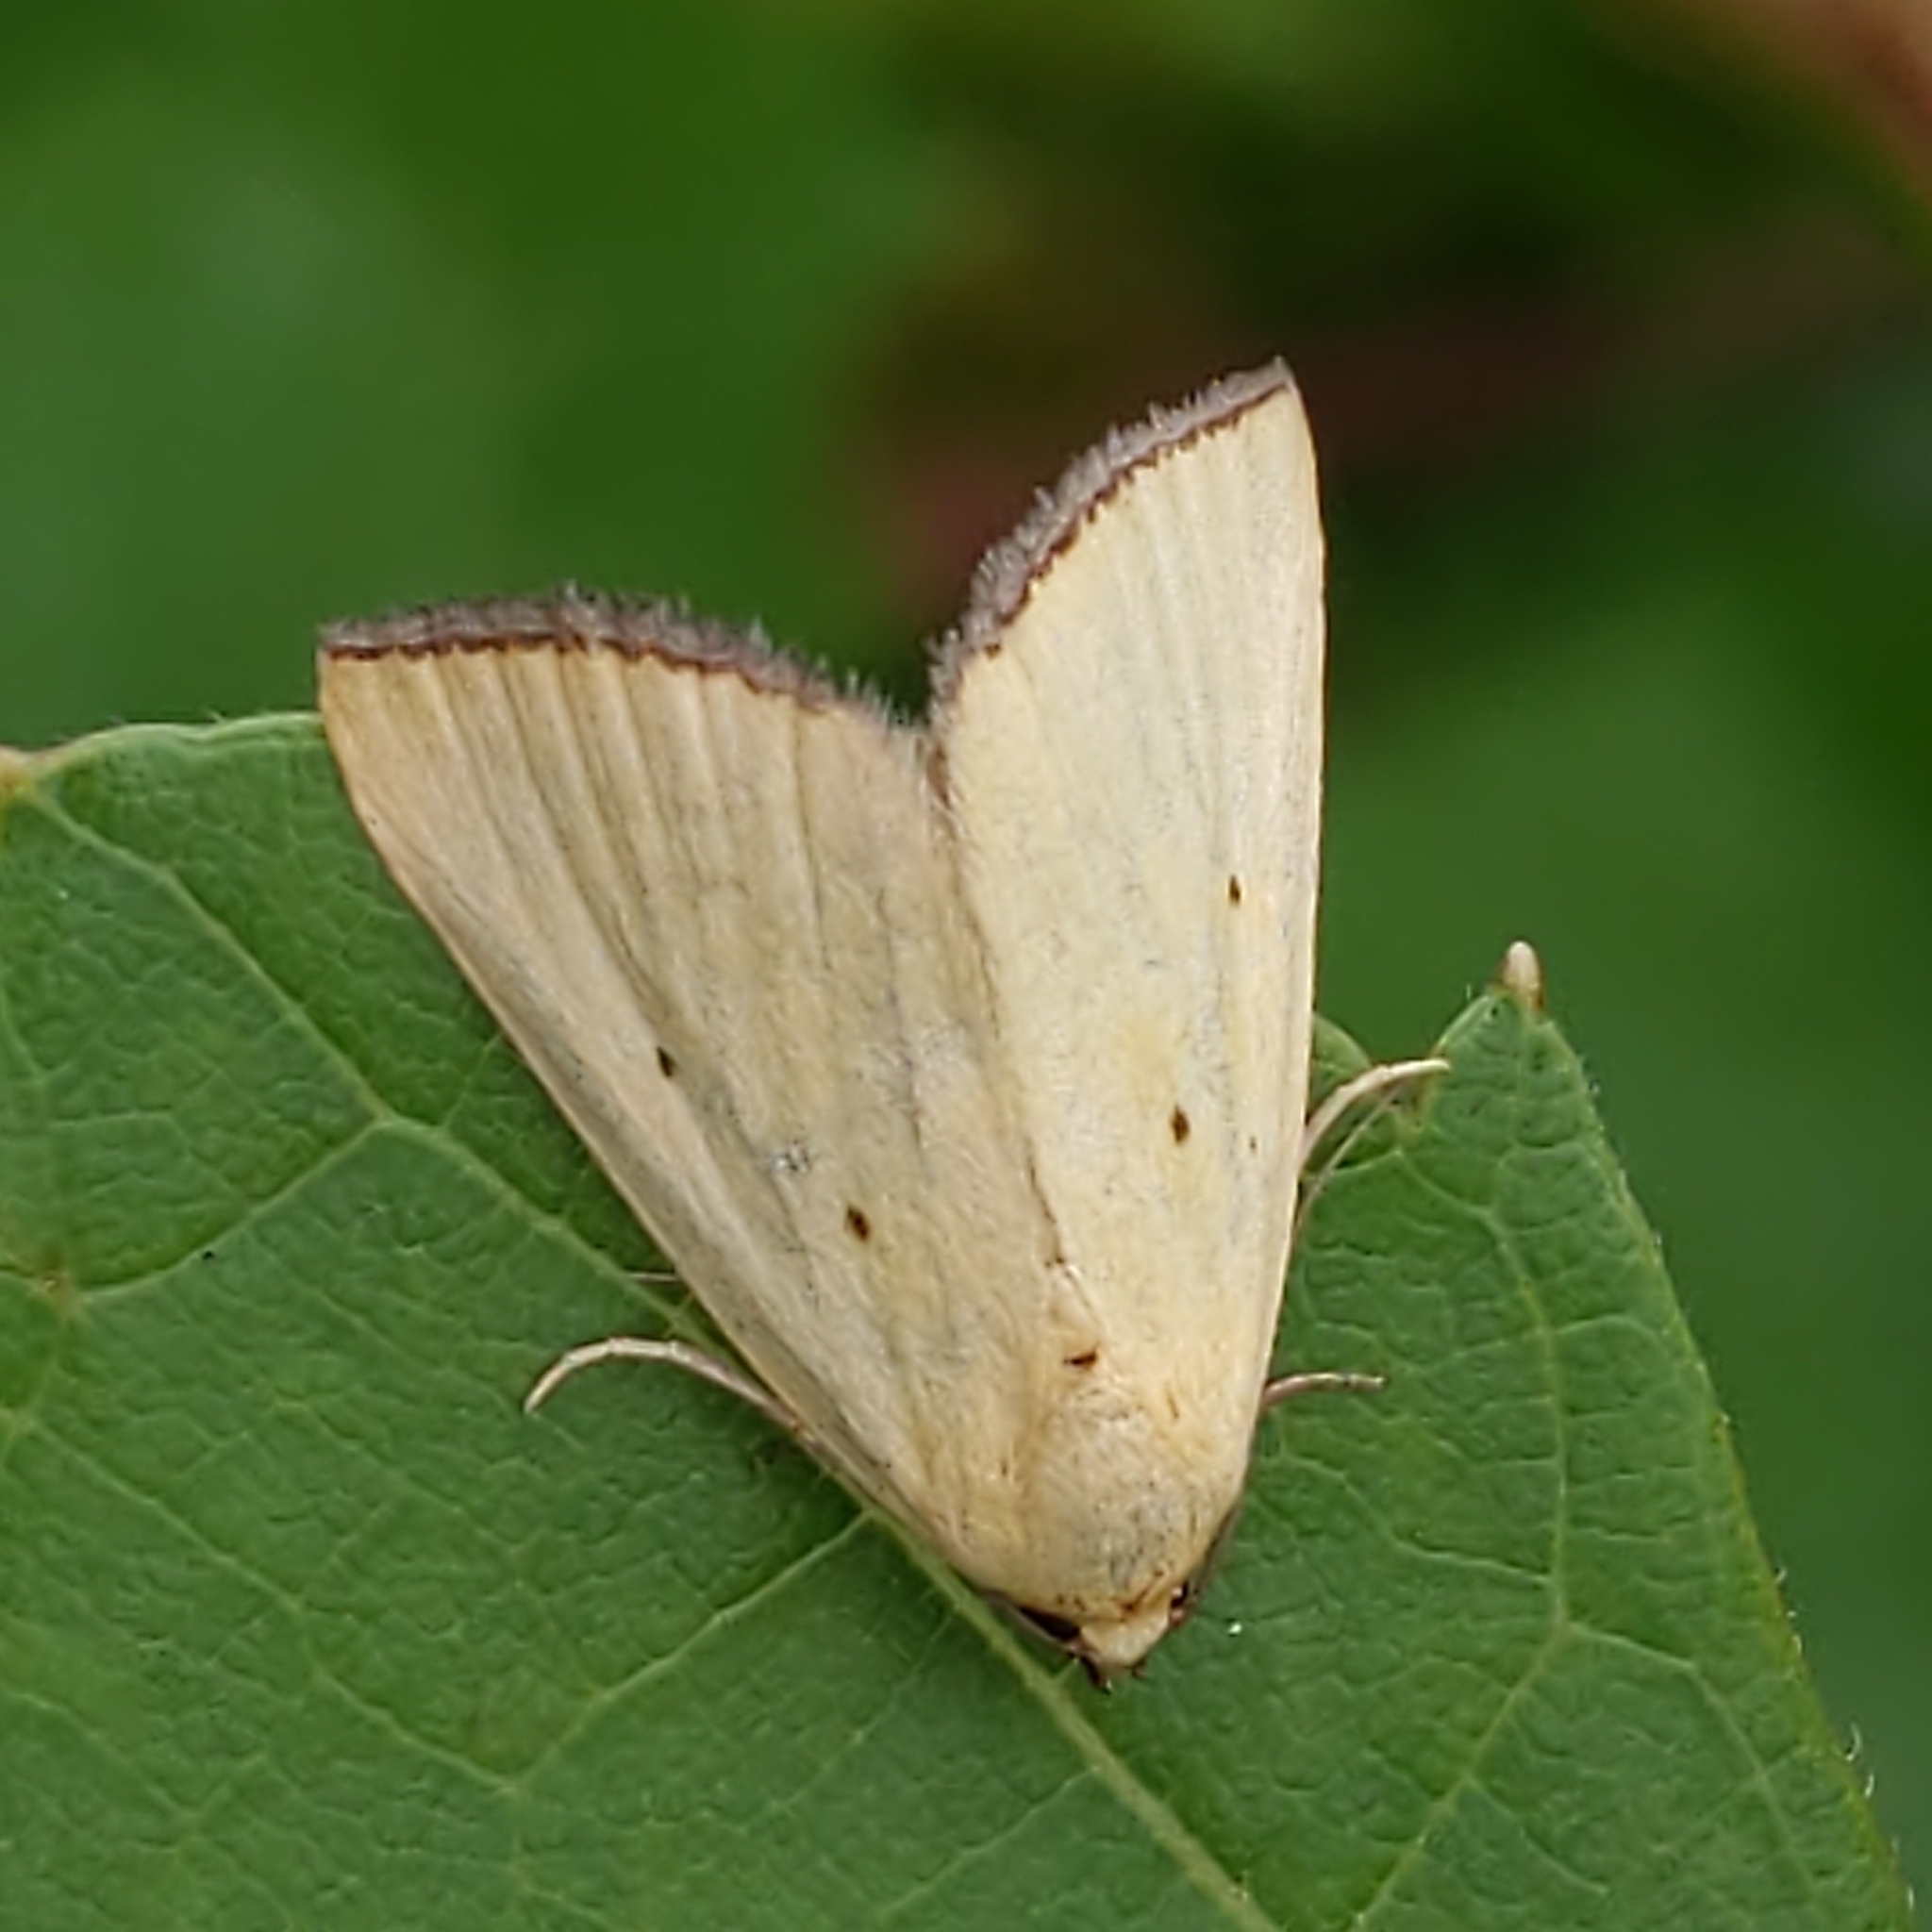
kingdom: Animalia
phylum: Arthropoda
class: Insecta
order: Lepidoptera
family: Noctuidae
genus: Marimatha
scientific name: Marimatha nigrofimbria
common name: Black-bordered lemon moth
